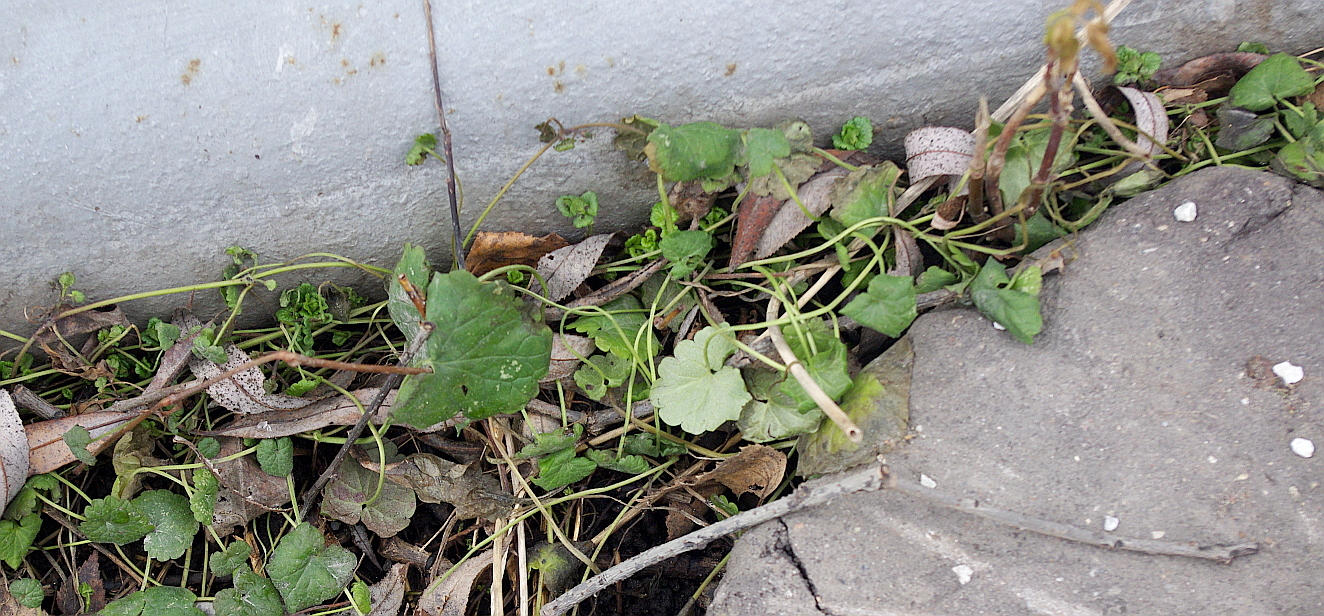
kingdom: Plantae
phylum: Tracheophyta
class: Magnoliopsida
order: Lamiales
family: Lamiaceae
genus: Glechoma
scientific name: Glechoma hederacea
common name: Ground ivy
